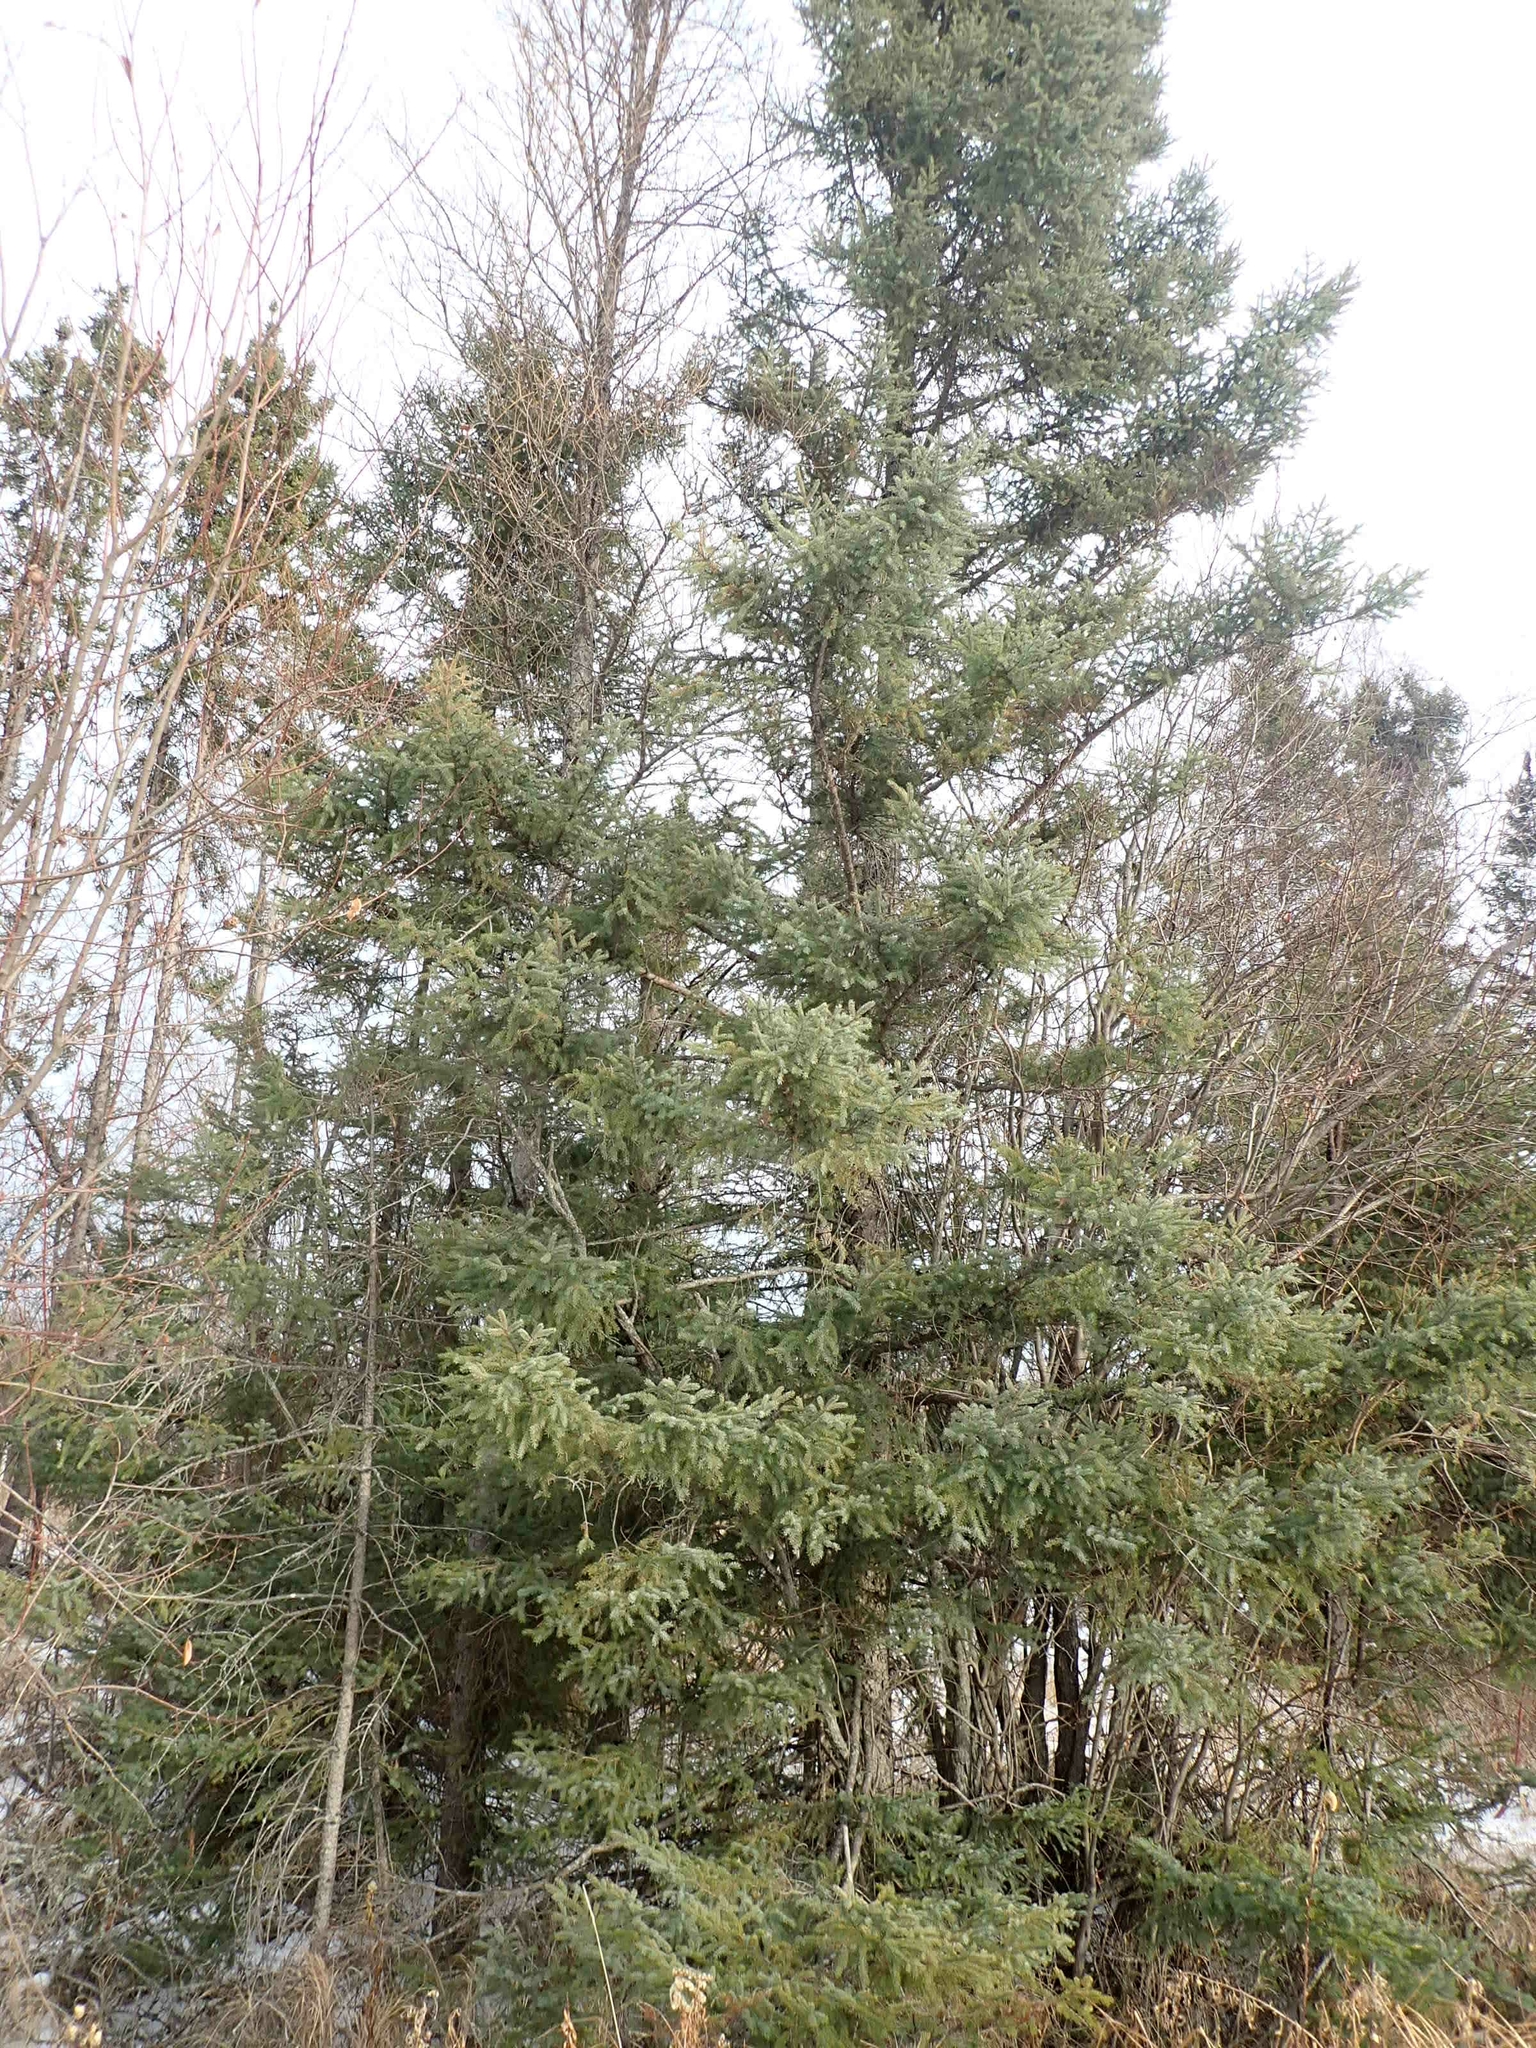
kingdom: Plantae
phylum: Tracheophyta
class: Pinopsida
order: Pinales
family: Pinaceae
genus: Picea
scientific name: Picea glauca
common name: White spruce
